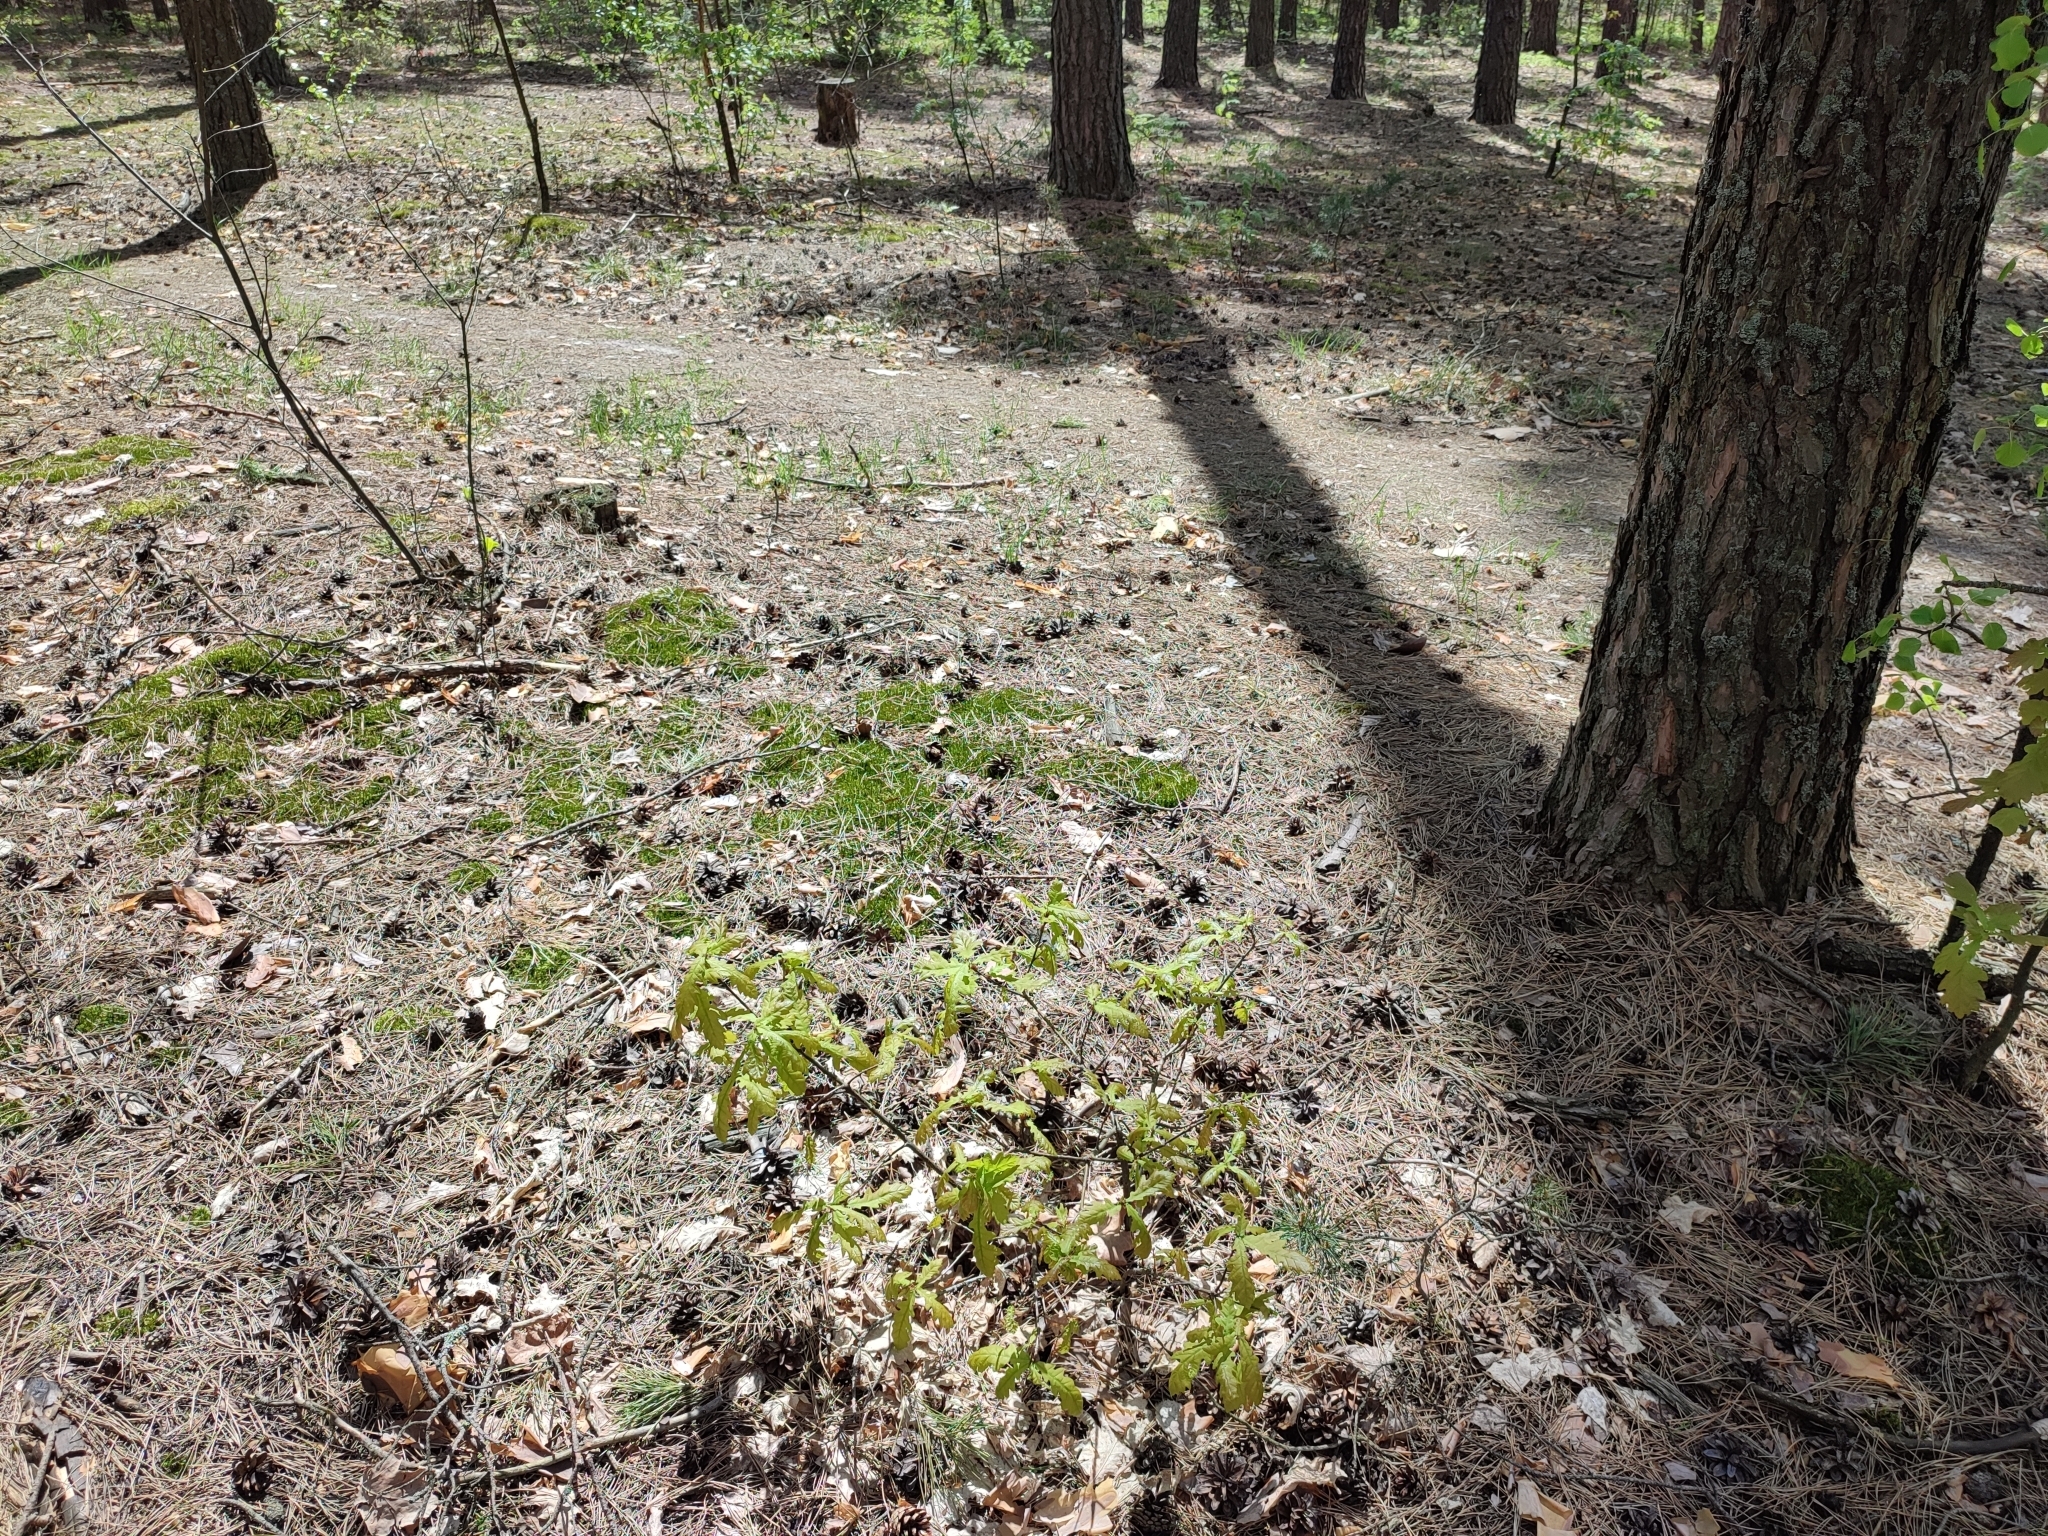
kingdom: Plantae
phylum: Tracheophyta
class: Magnoliopsida
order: Fagales
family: Fagaceae
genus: Quercus
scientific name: Quercus robur
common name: Pedunculate oak
